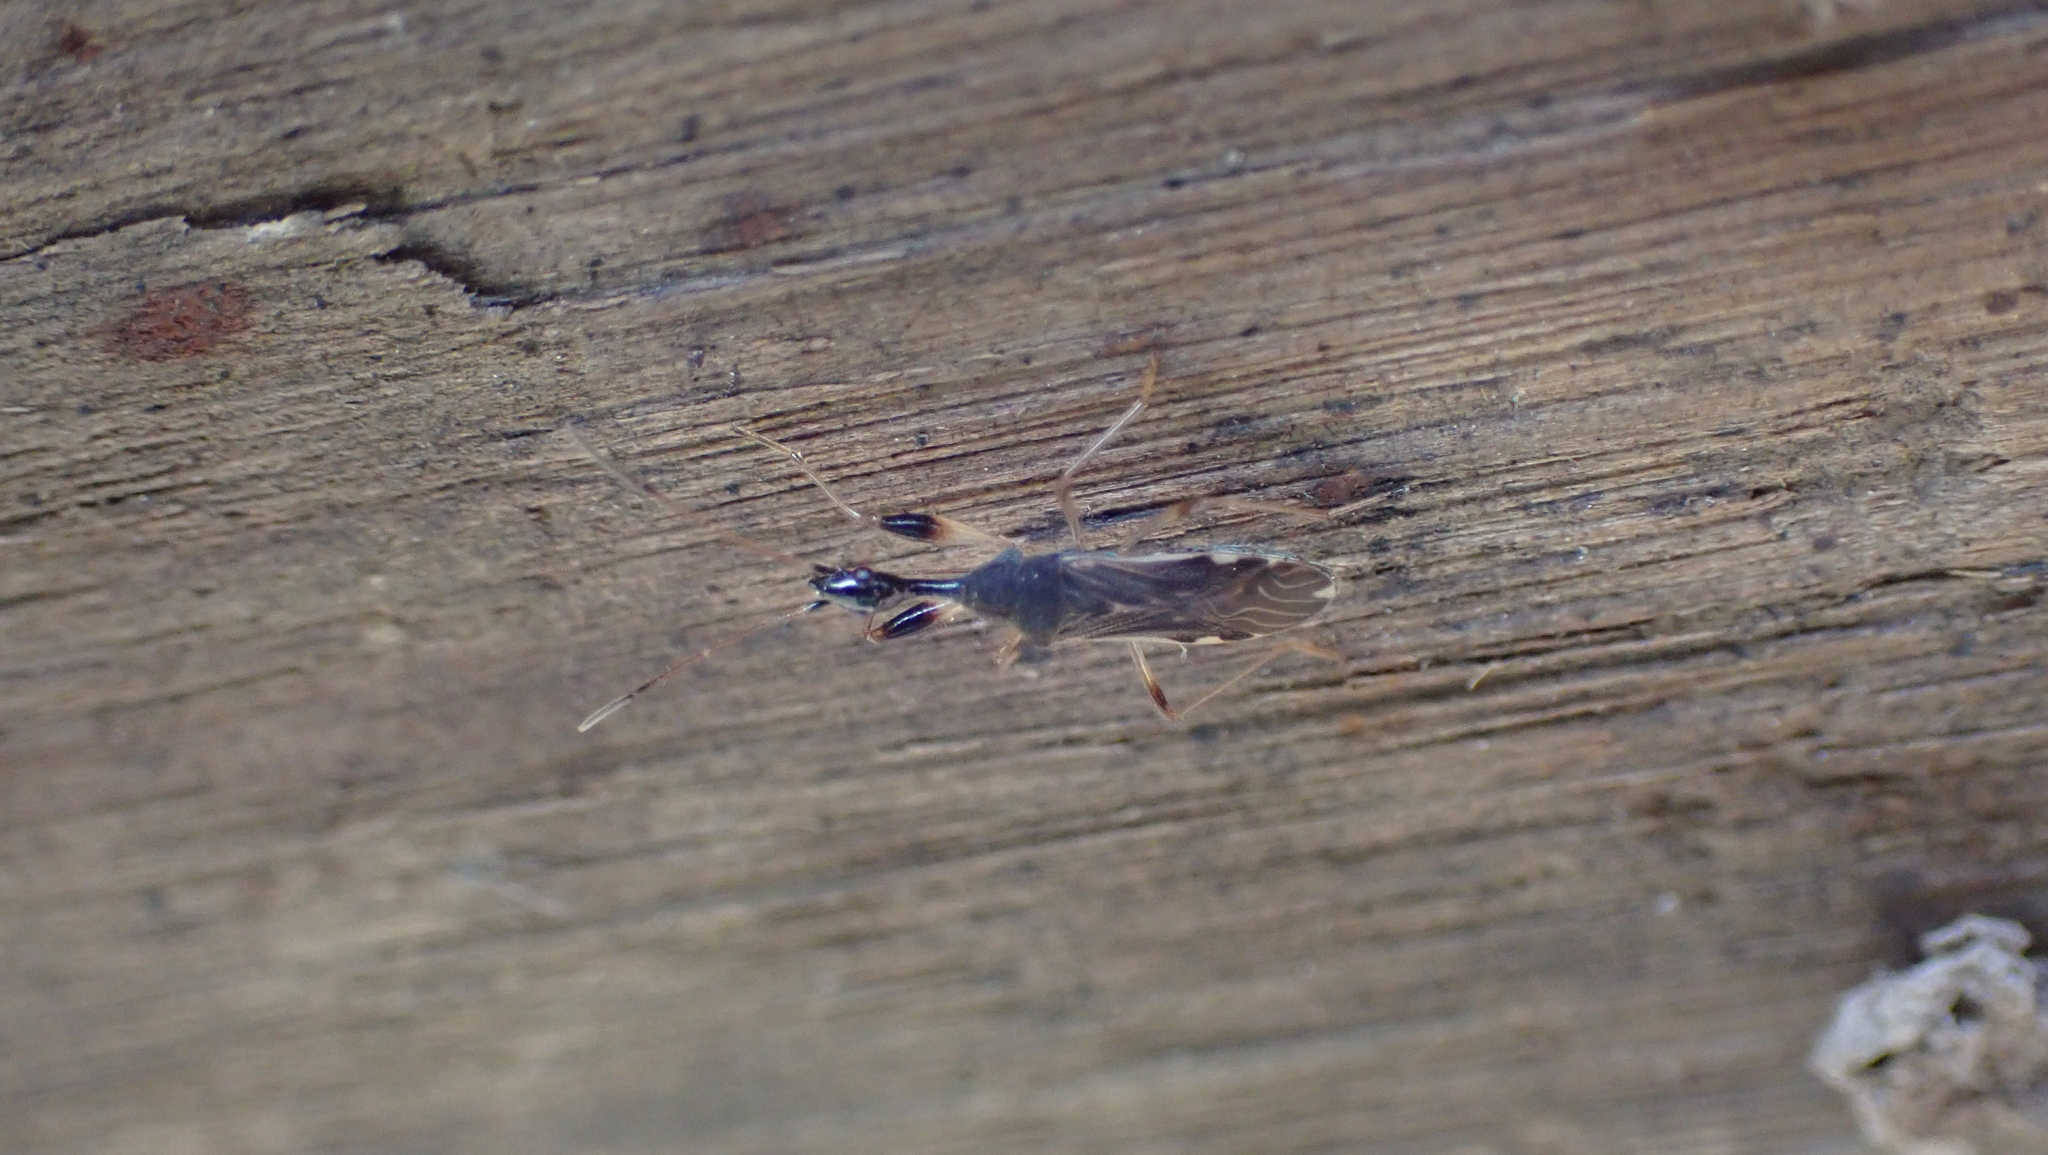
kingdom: Animalia
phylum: Arthropoda
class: Insecta
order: Hemiptera
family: Rhyparochromidae
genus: Myodocha
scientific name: Myodocha serripes
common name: Long-necked seed bug
